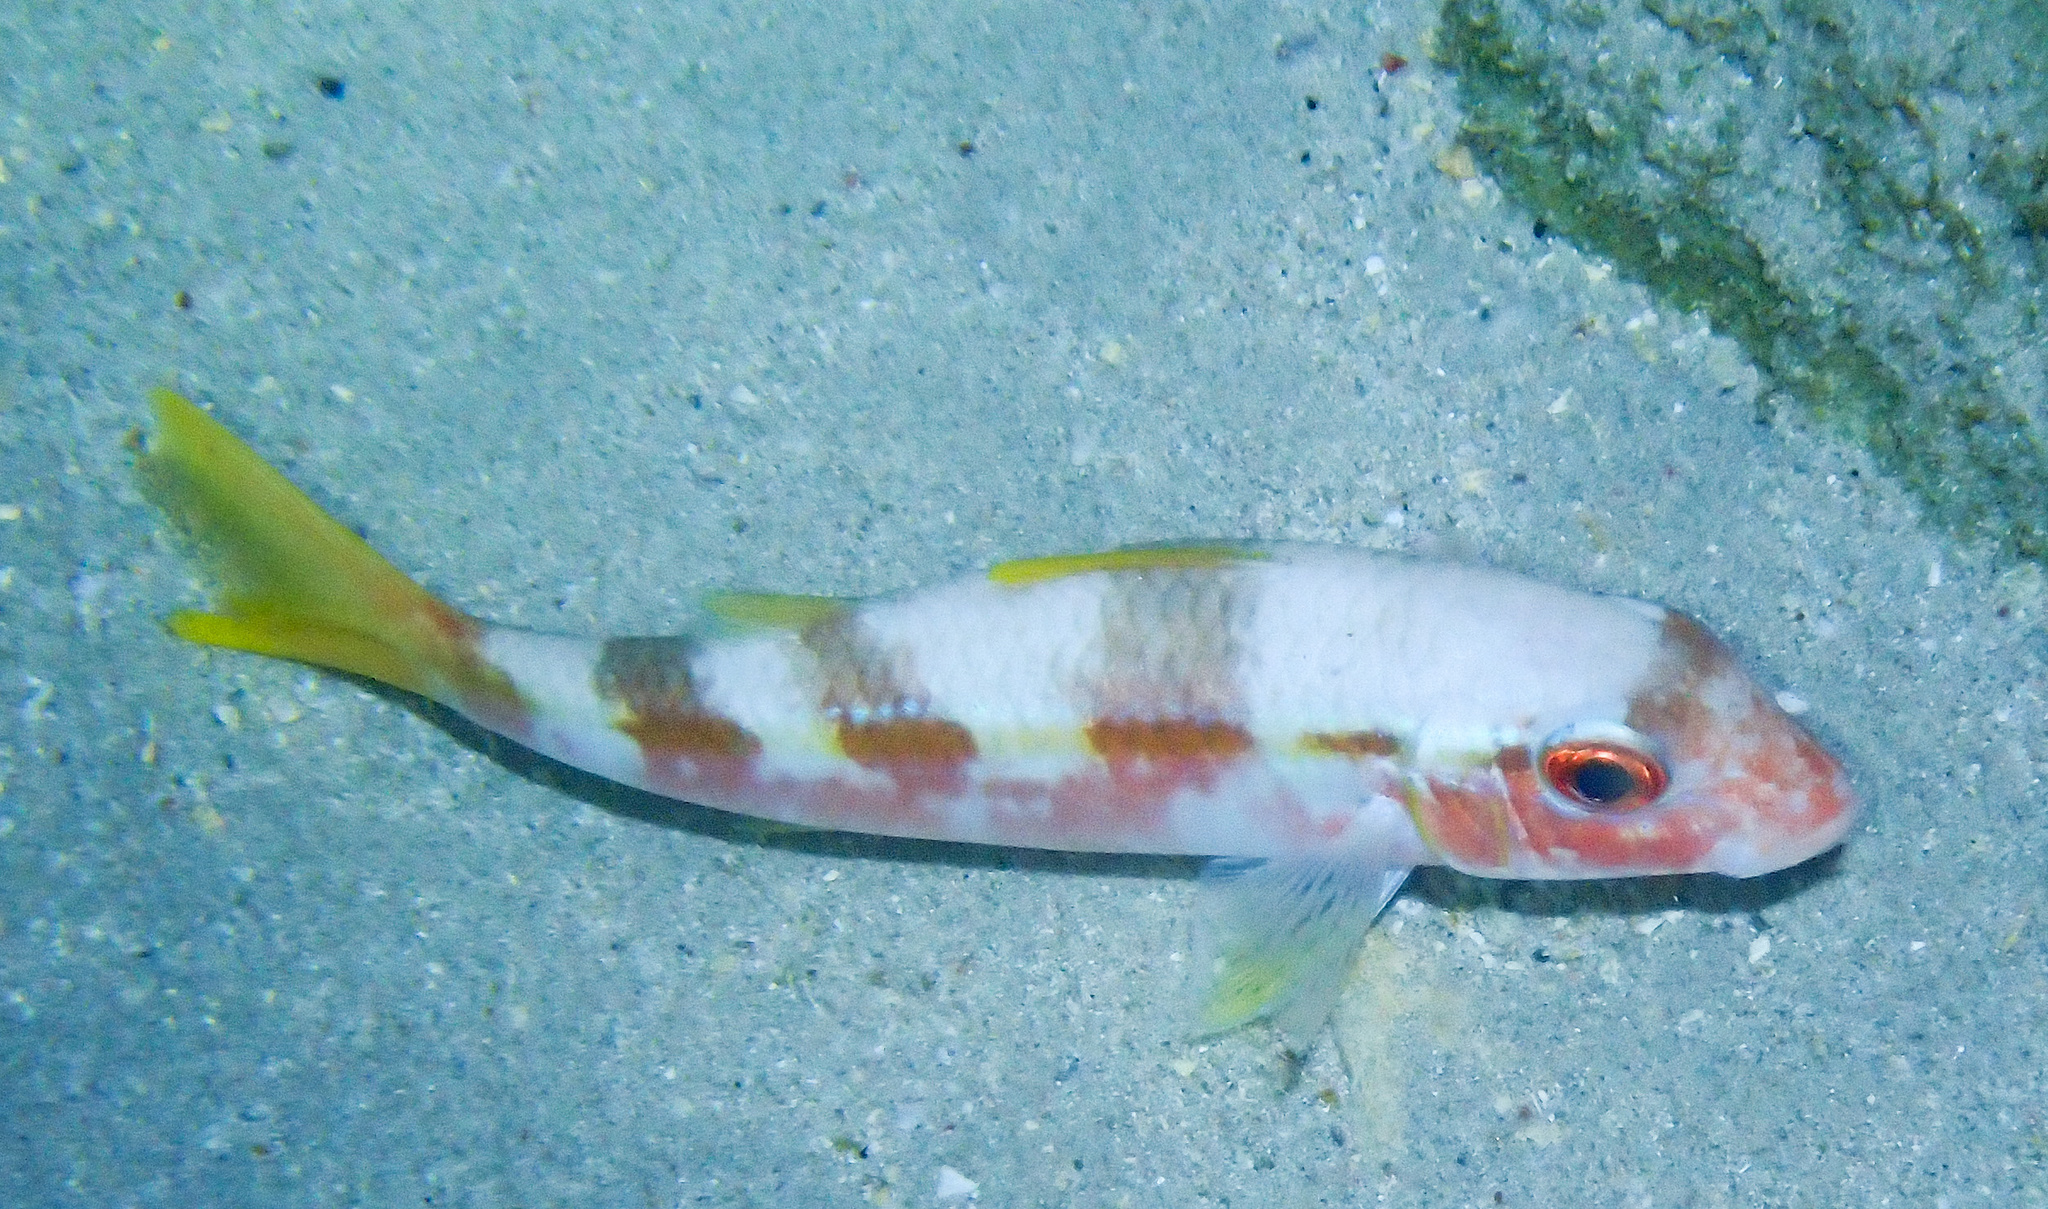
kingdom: Animalia
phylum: Chordata
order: Perciformes
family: Mullidae
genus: Pseudupeneus
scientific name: Pseudupeneus maculatus
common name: Spotted goatfish
